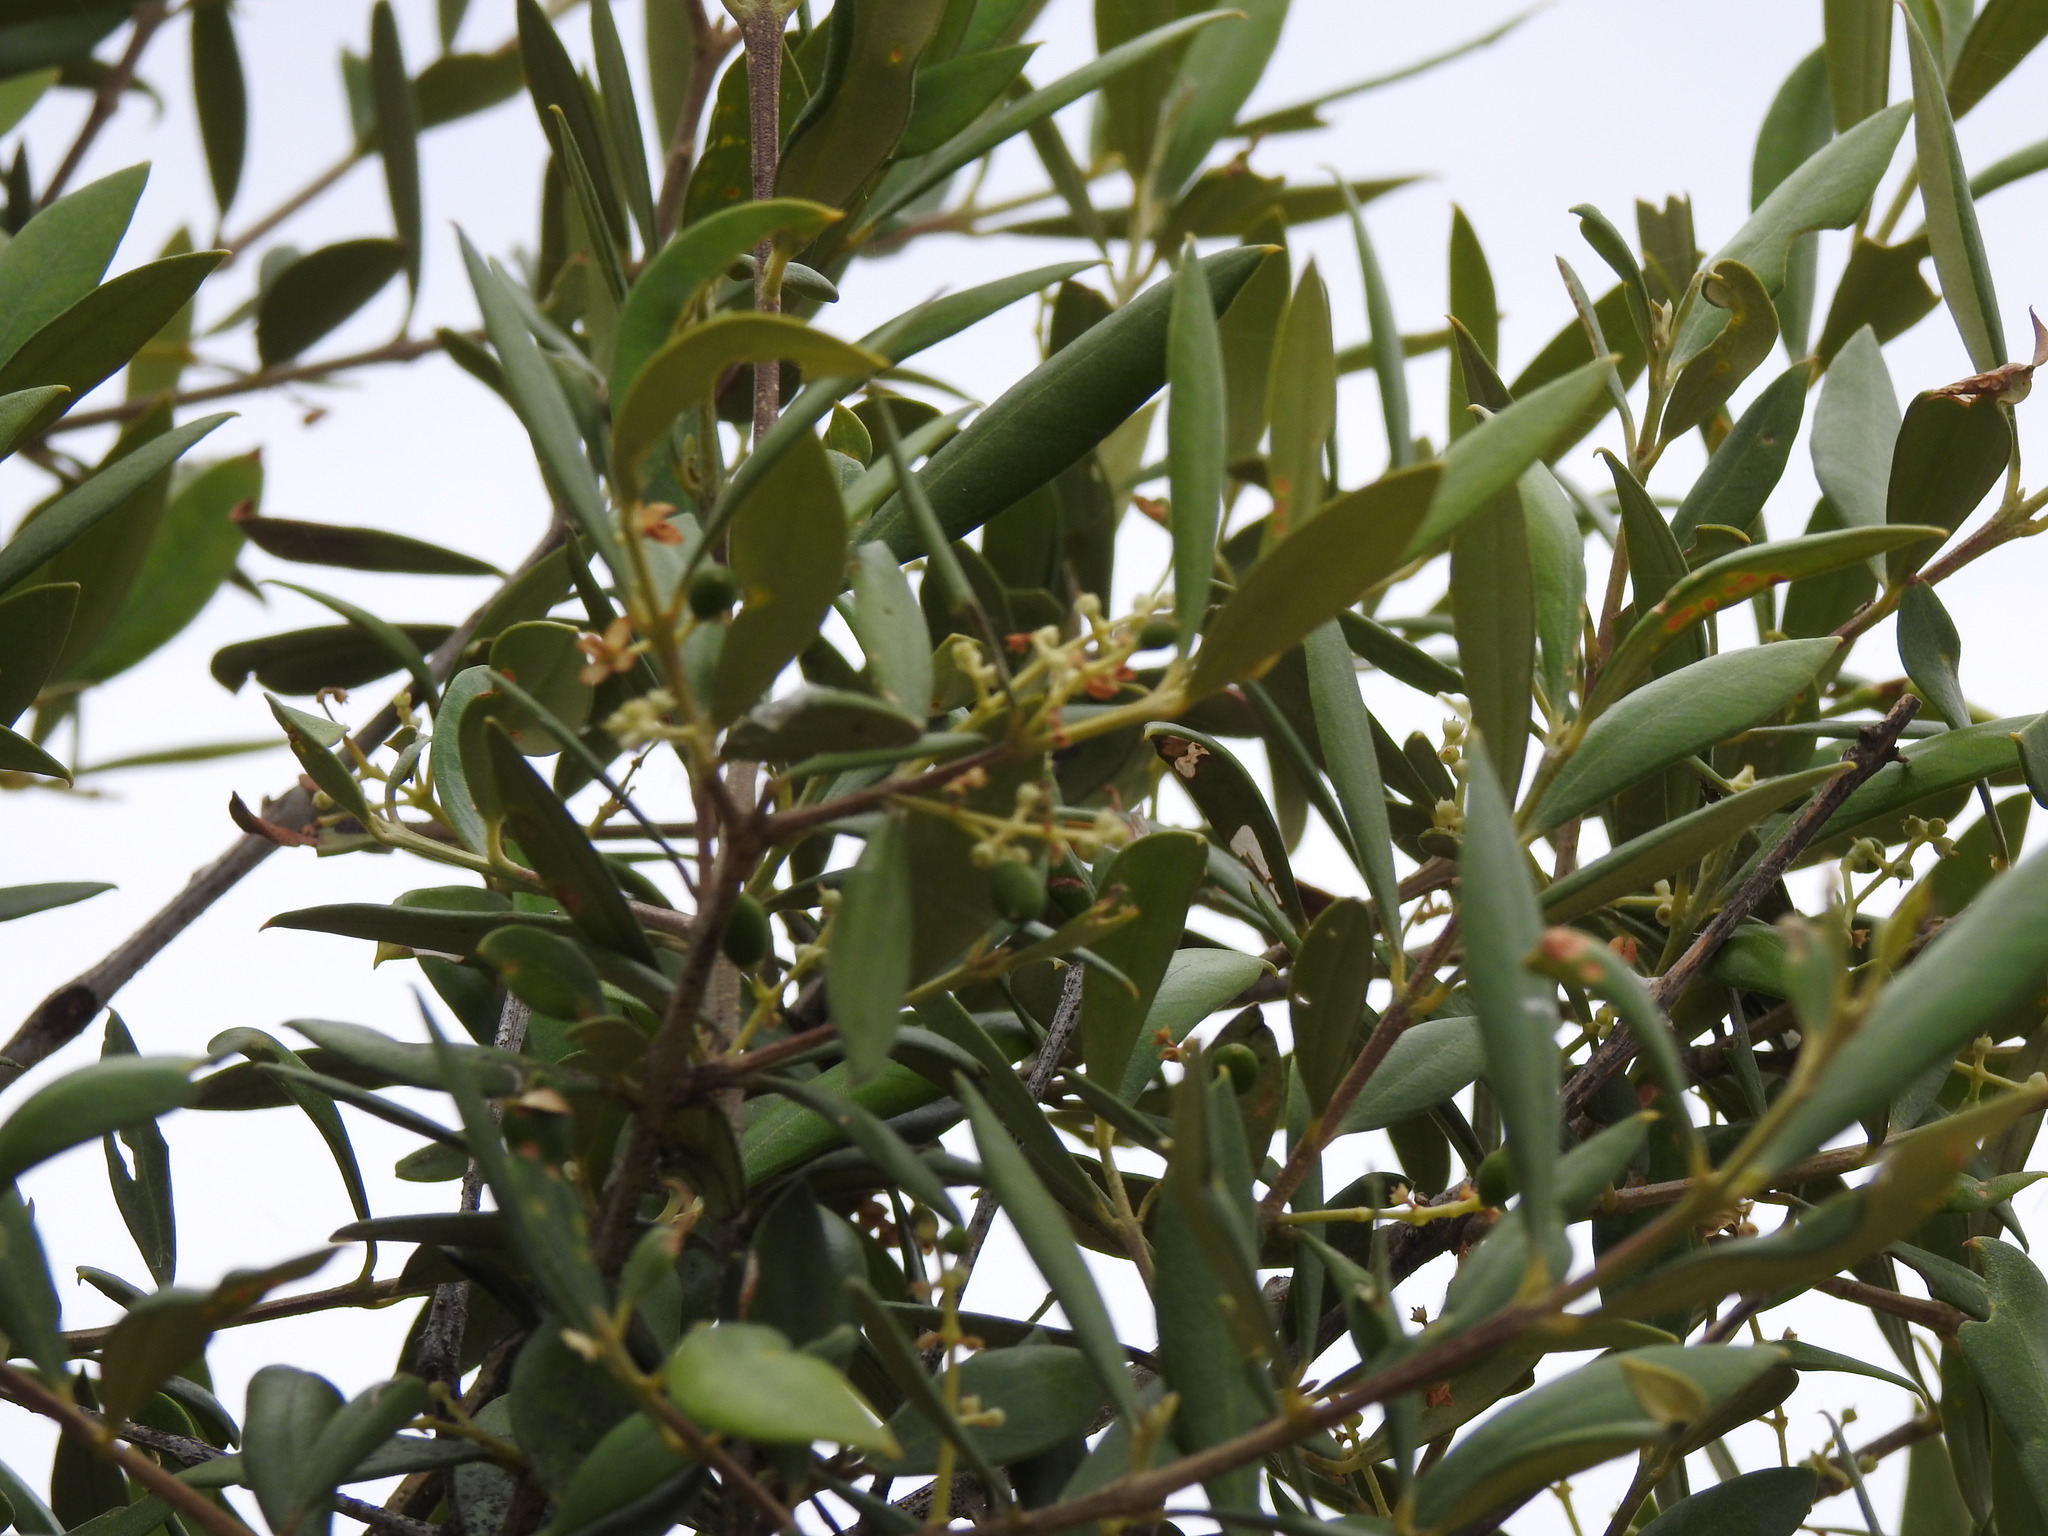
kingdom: Plantae
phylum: Tracheophyta
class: Magnoliopsida
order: Lamiales
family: Oleaceae
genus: Olea
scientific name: Olea europaea
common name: Olive
